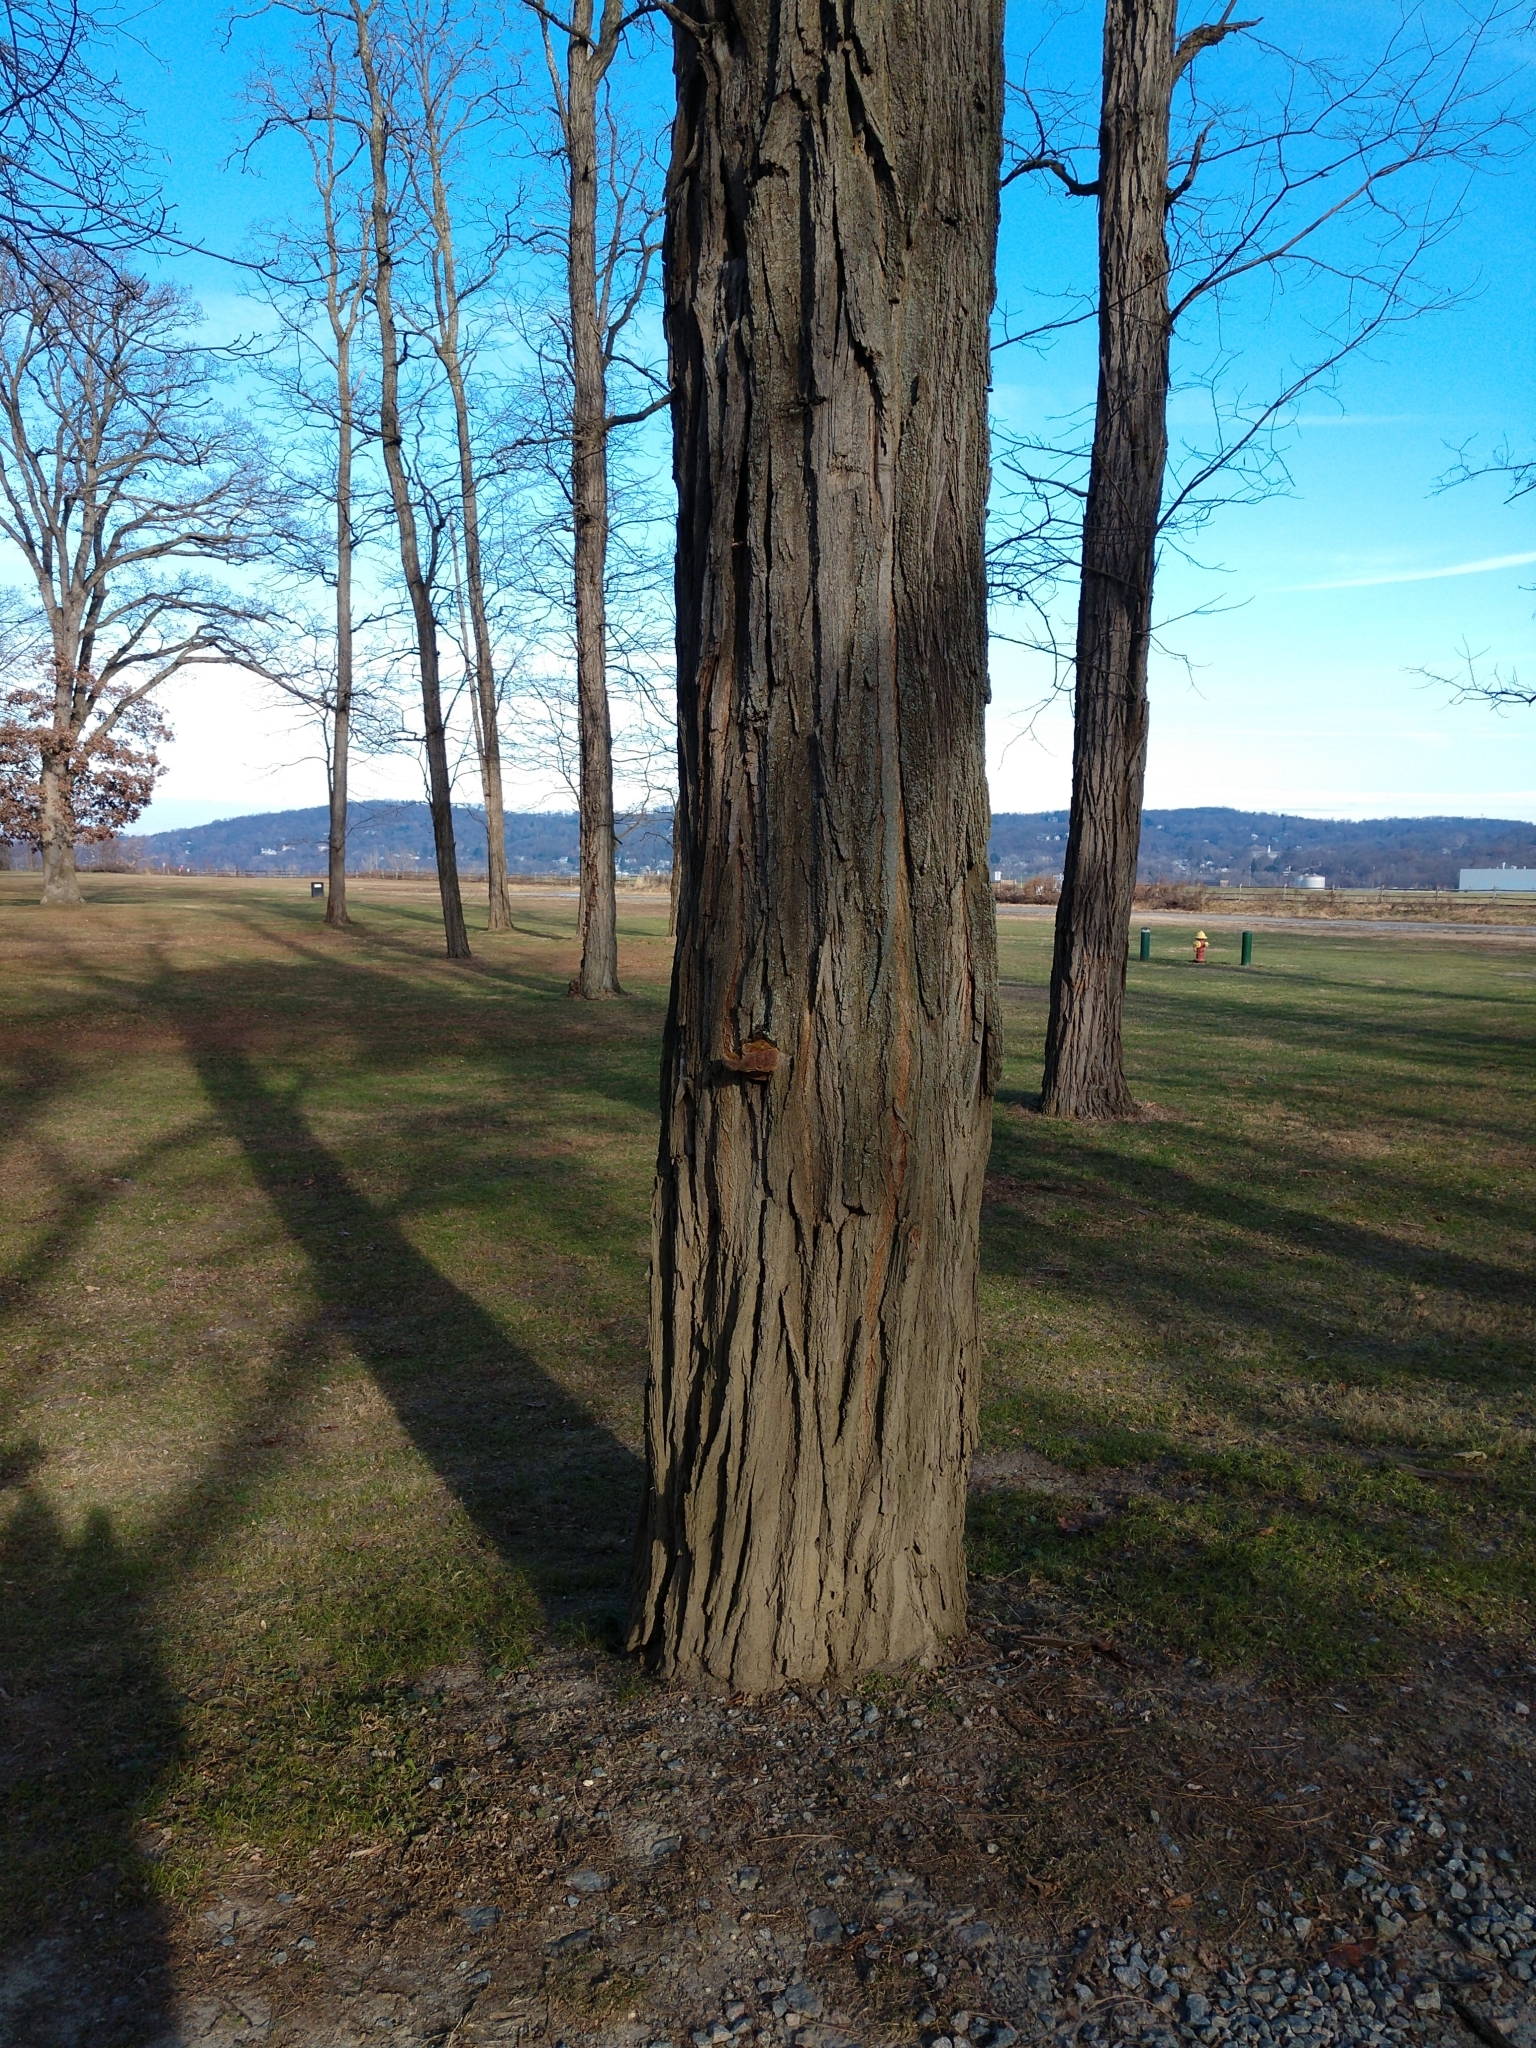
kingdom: Fungi
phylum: Basidiomycota
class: Agaricomycetes
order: Hymenochaetales
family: Hymenochaetaceae
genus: Phellinus
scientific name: Phellinus robiniae
